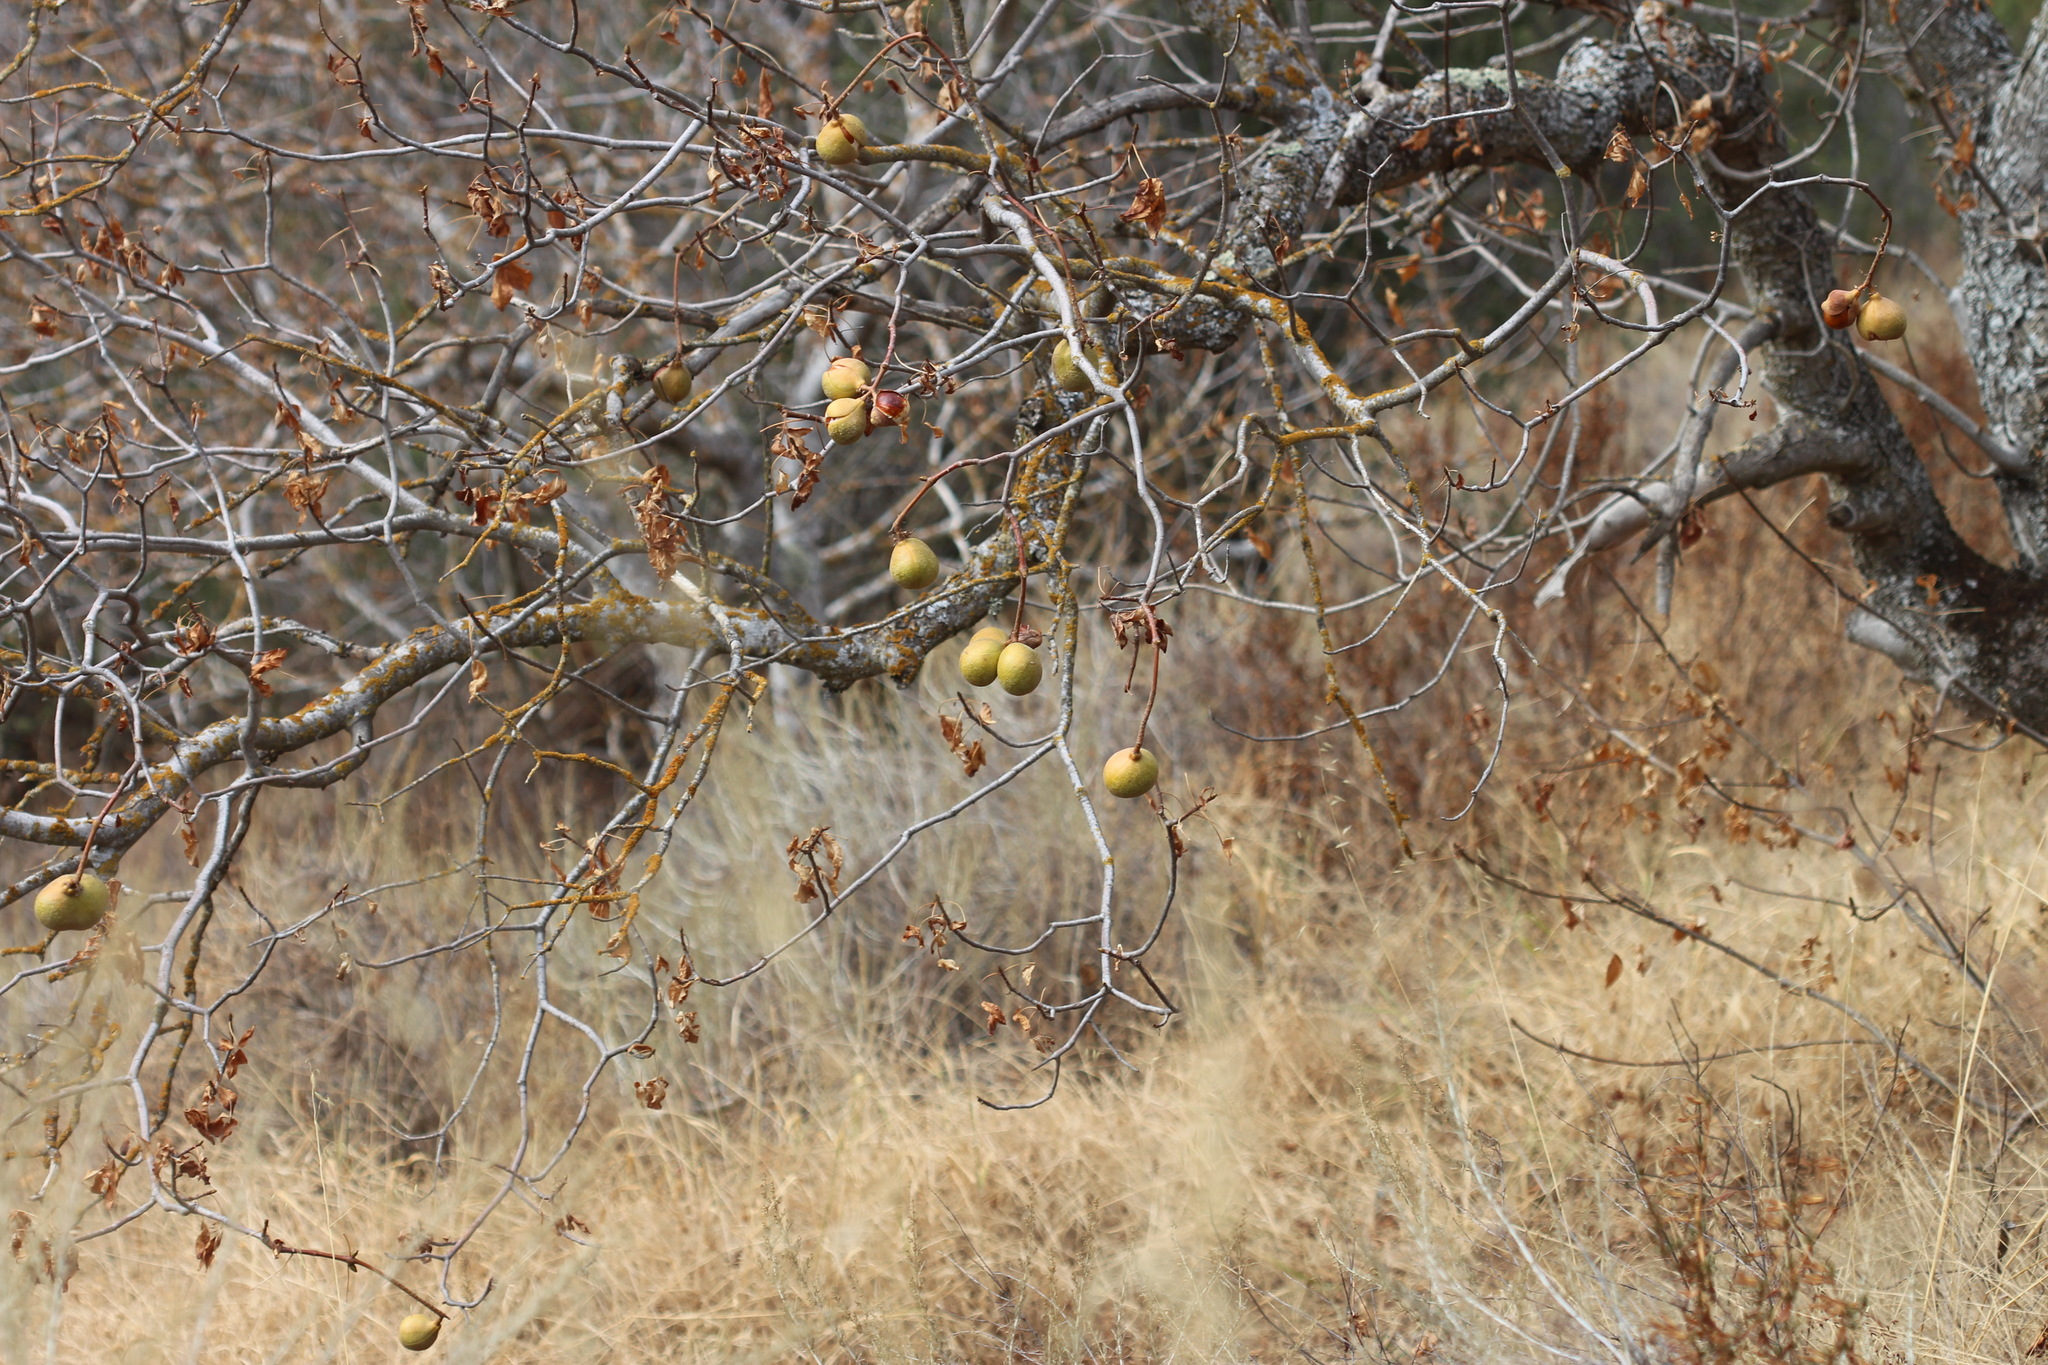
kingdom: Plantae
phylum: Tracheophyta
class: Magnoliopsida
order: Sapindales
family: Sapindaceae
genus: Aesculus
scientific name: Aesculus californica
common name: California buckeye
